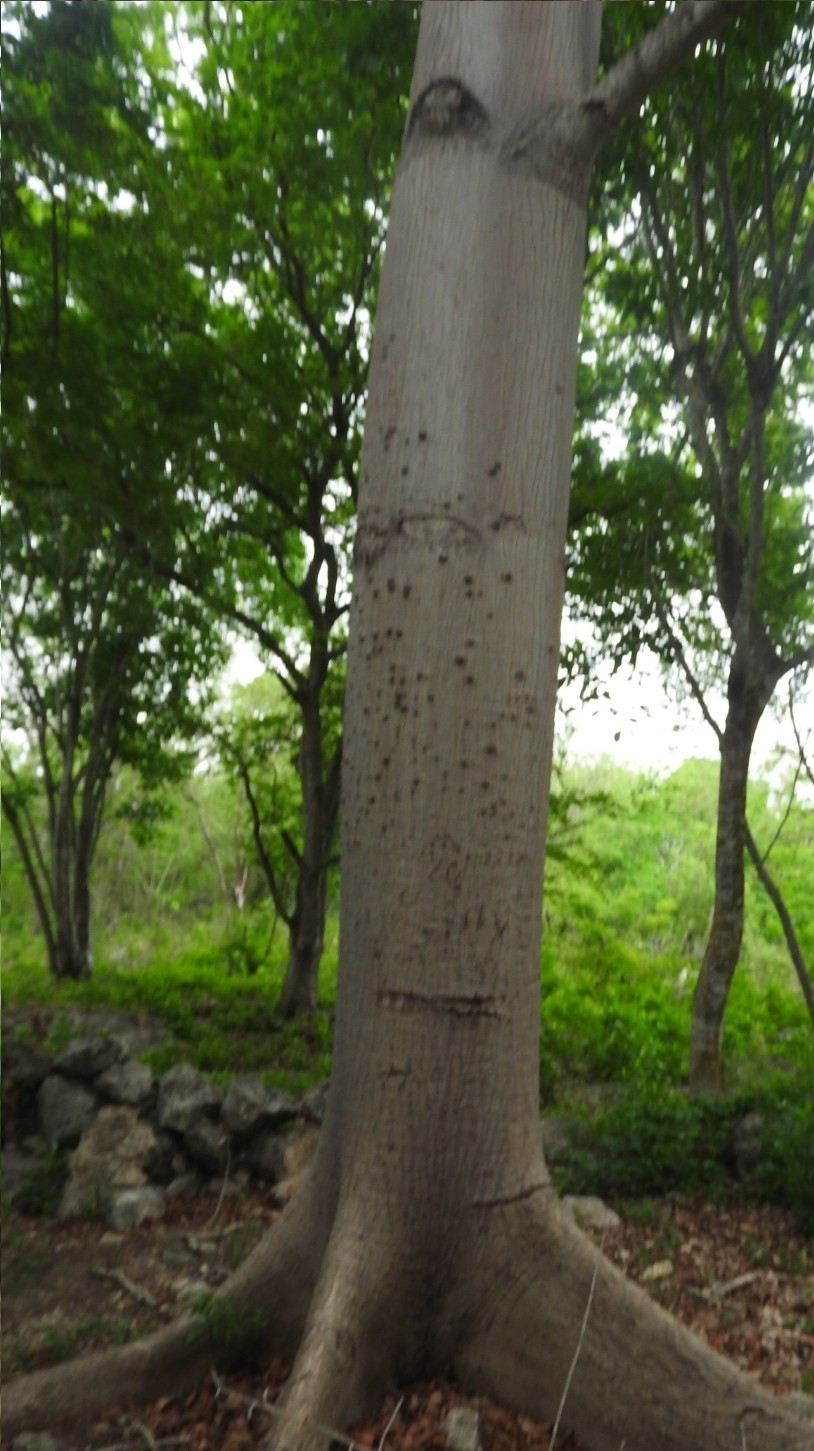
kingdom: Plantae
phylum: Tracheophyta
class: Magnoliopsida
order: Malvales
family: Malvaceae
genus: Ceiba
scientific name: Ceiba pentandra
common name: Kapok
